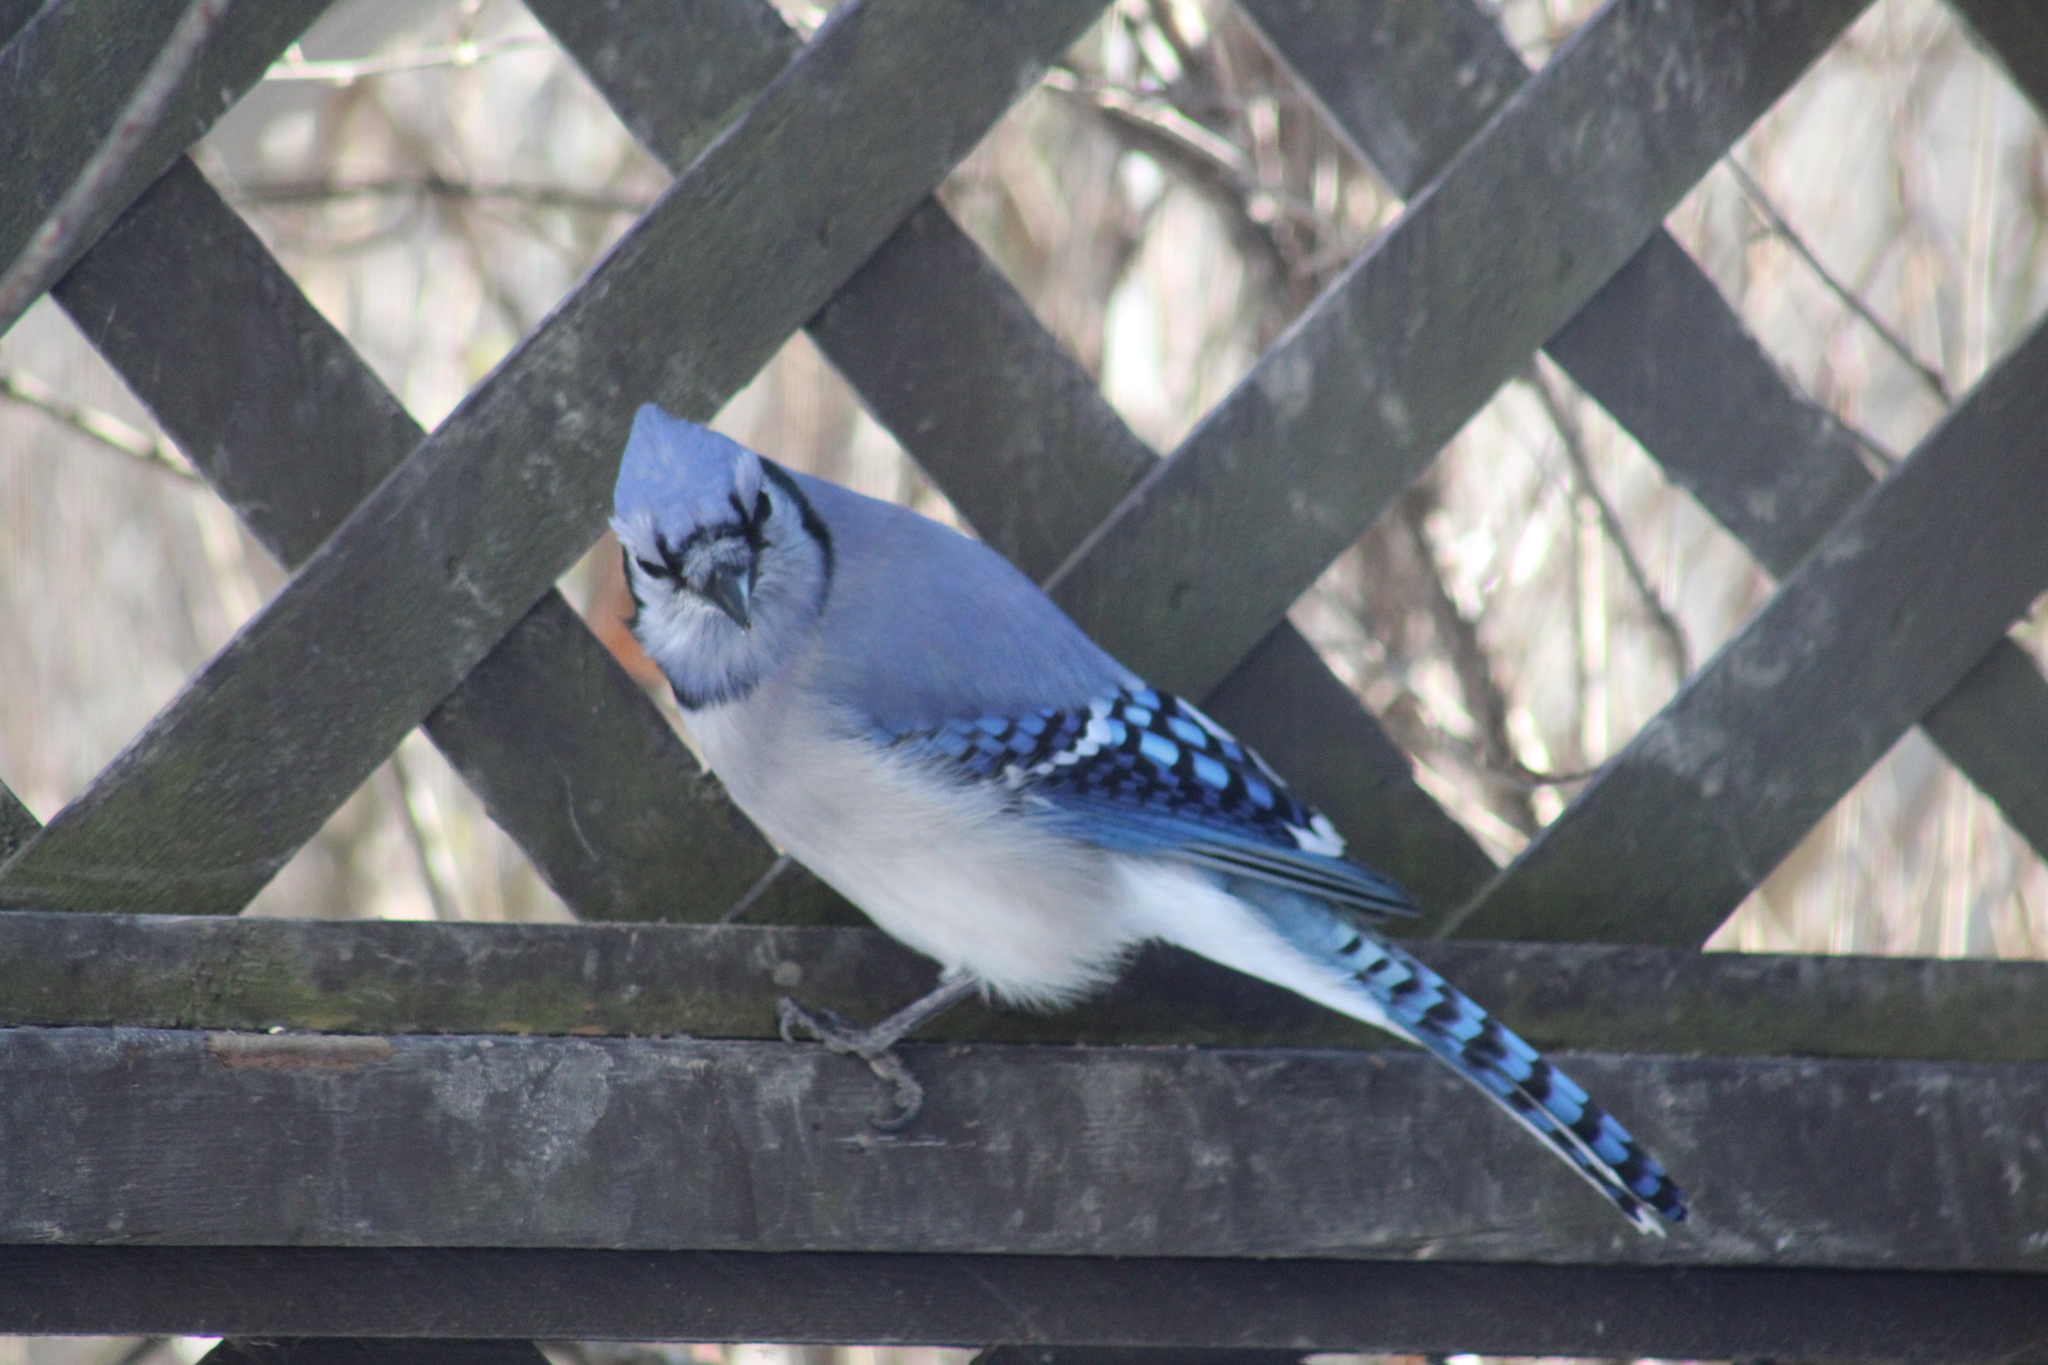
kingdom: Animalia
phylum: Chordata
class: Aves
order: Passeriformes
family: Corvidae
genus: Cyanocitta
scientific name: Cyanocitta cristata
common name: Blue jay
